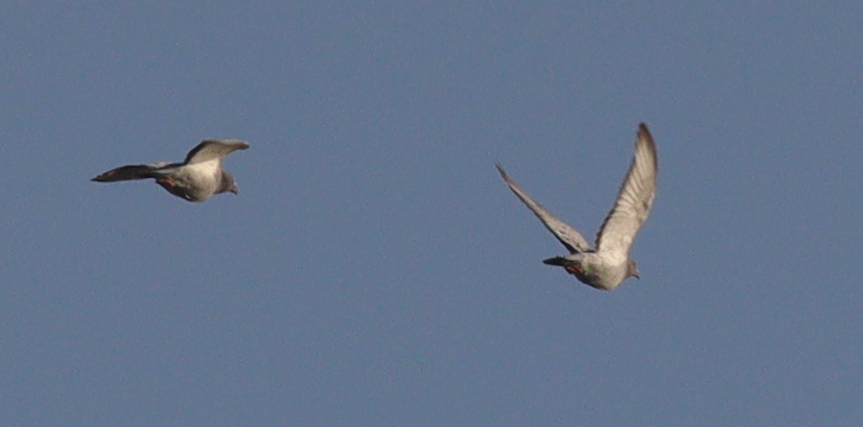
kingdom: Animalia
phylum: Chordata
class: Aves
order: Columbiformes
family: Columbidae
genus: Columba
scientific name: Columba livia
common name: Rock pigeon
